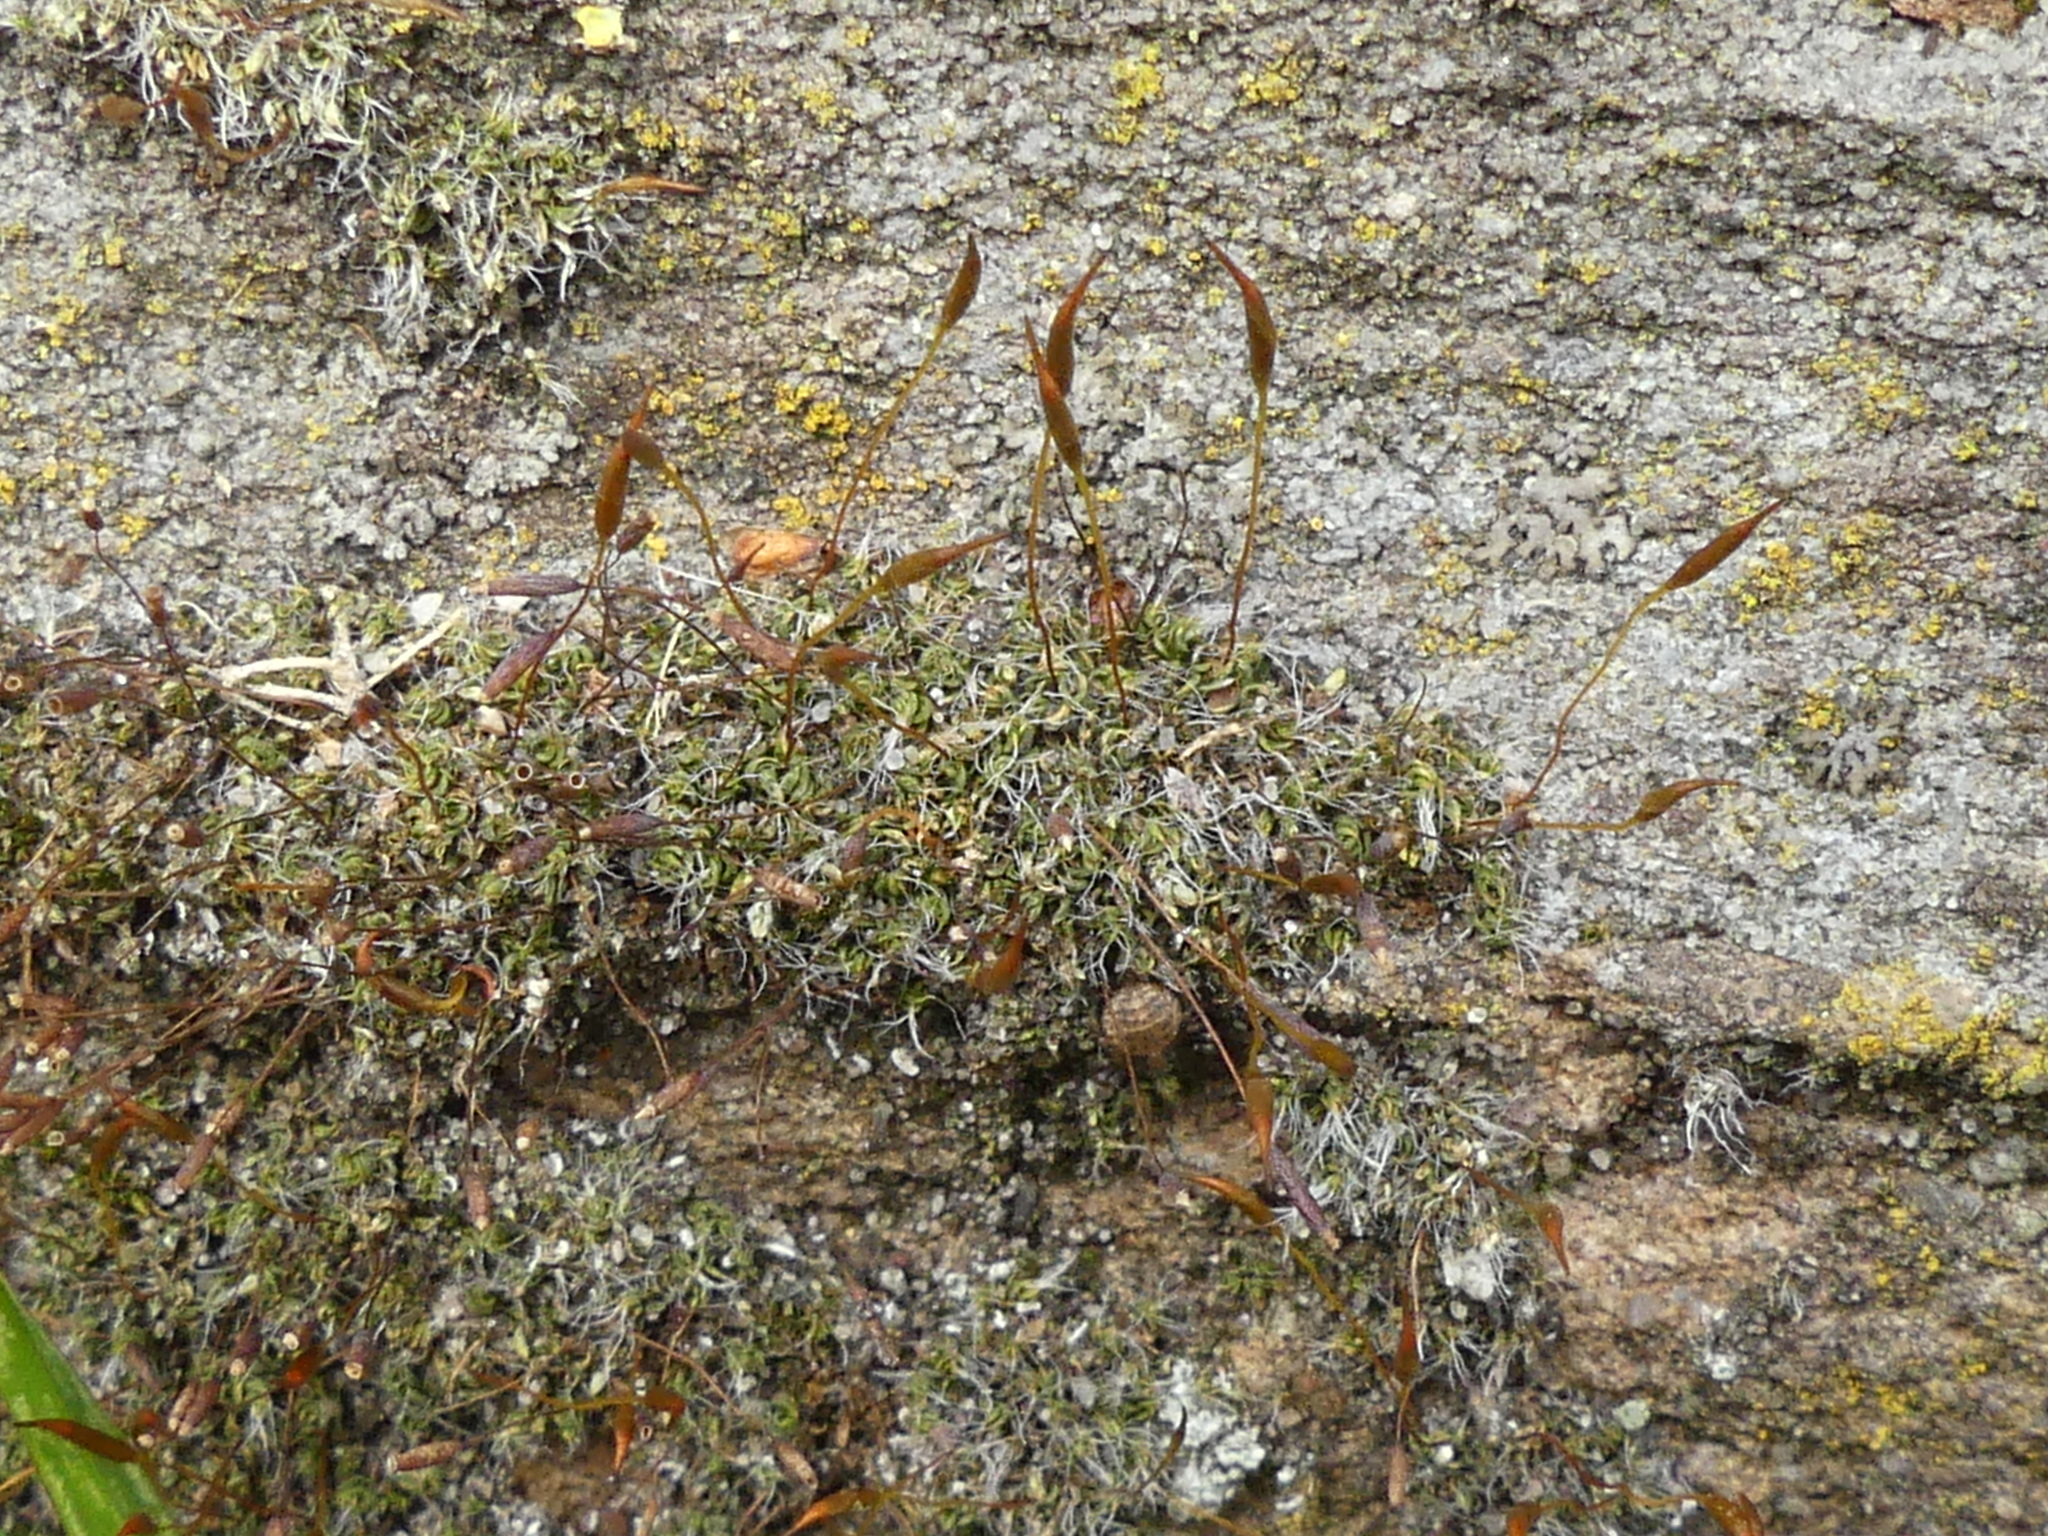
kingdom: Plantae
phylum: Bryophyta
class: Bryopsida
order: Pottiales
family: Pottiaceae
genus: Tortula
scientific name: Tortula muralis
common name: Wall screw-moss
